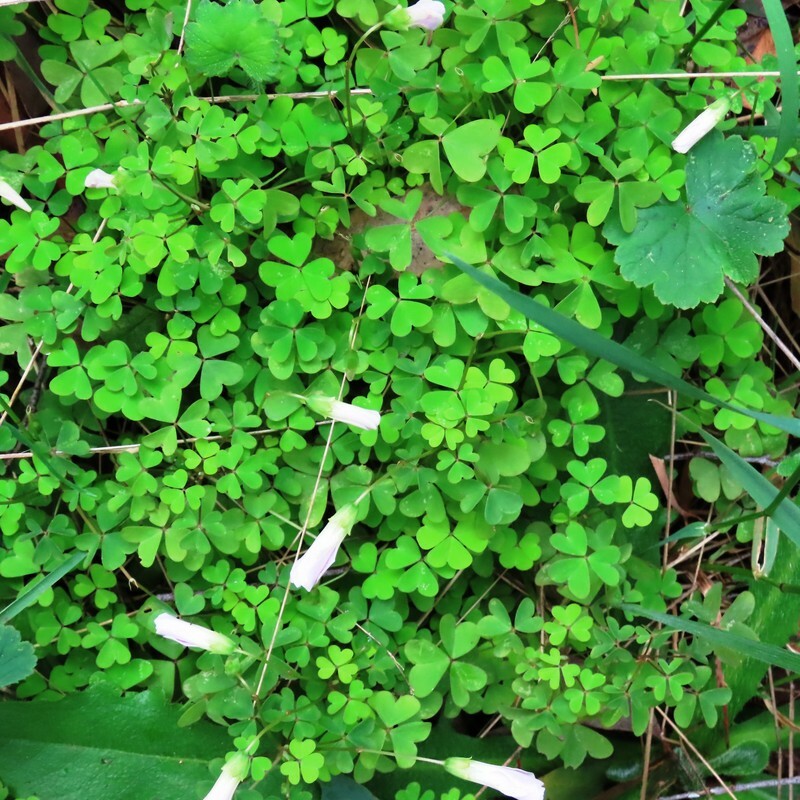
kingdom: Plantae
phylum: Tracheophyta
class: Magnoliopsida
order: Oxalidales
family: Oxalidaceae
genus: Oxalis
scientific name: Oxalis incarnata
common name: Pale pink-sorrel
